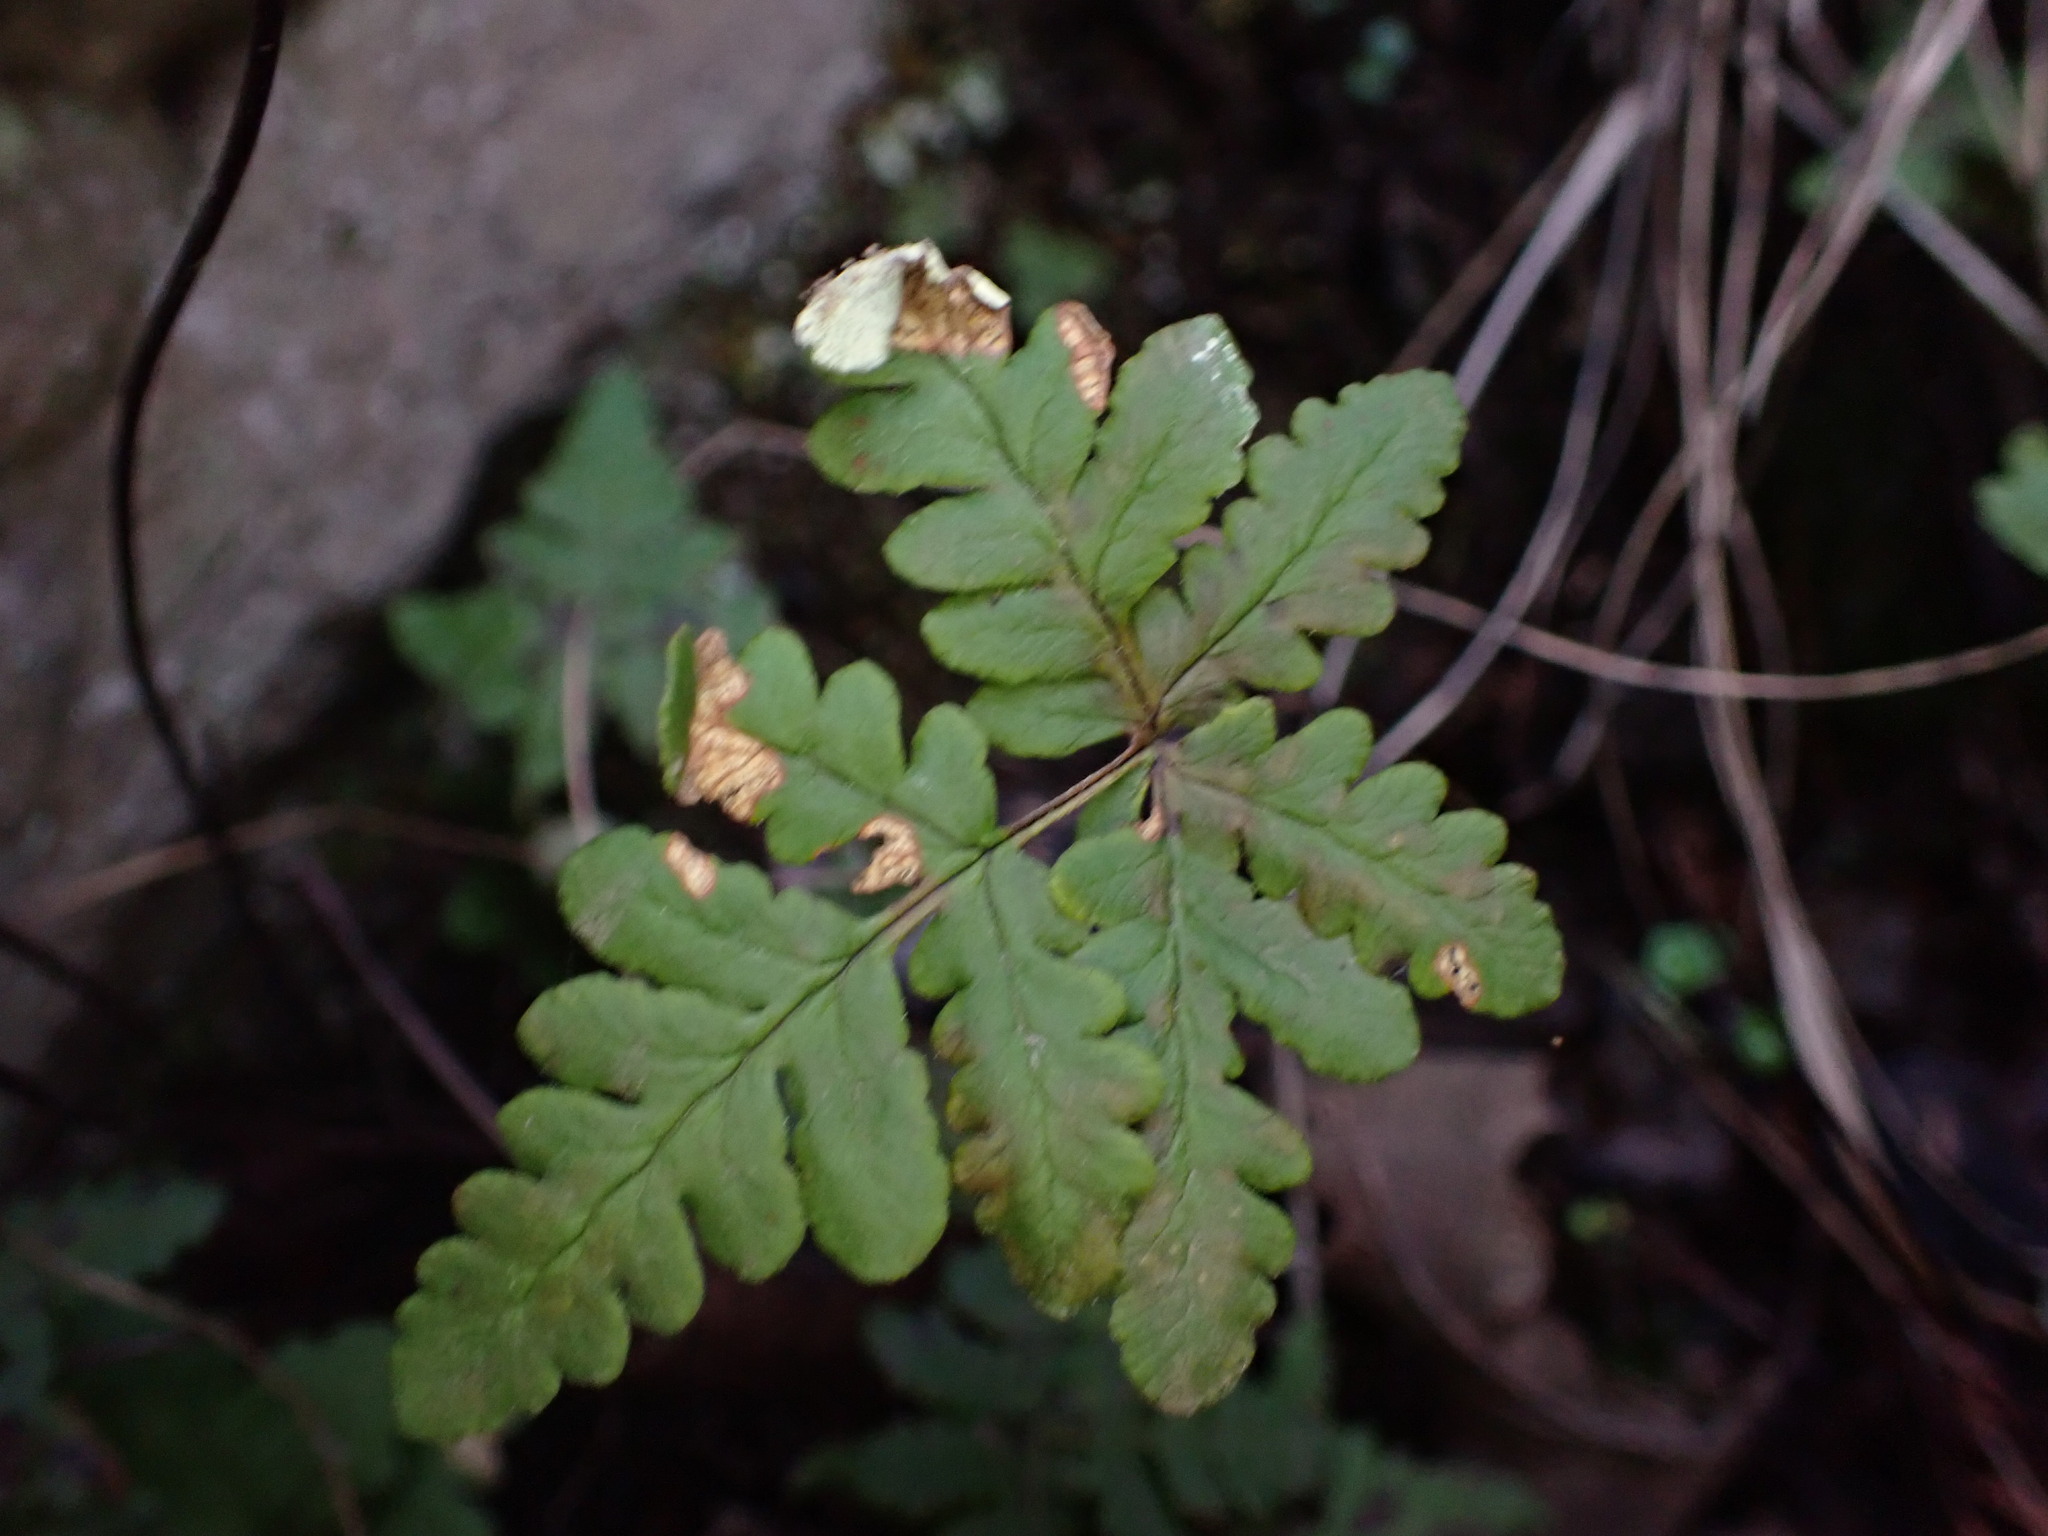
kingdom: Plantae
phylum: Tracheophyta
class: Polypodiopsida
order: Polypodiales
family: Pteridaceae
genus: Pentagramma
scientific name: Pentagramma triangularis
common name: Gold fern
